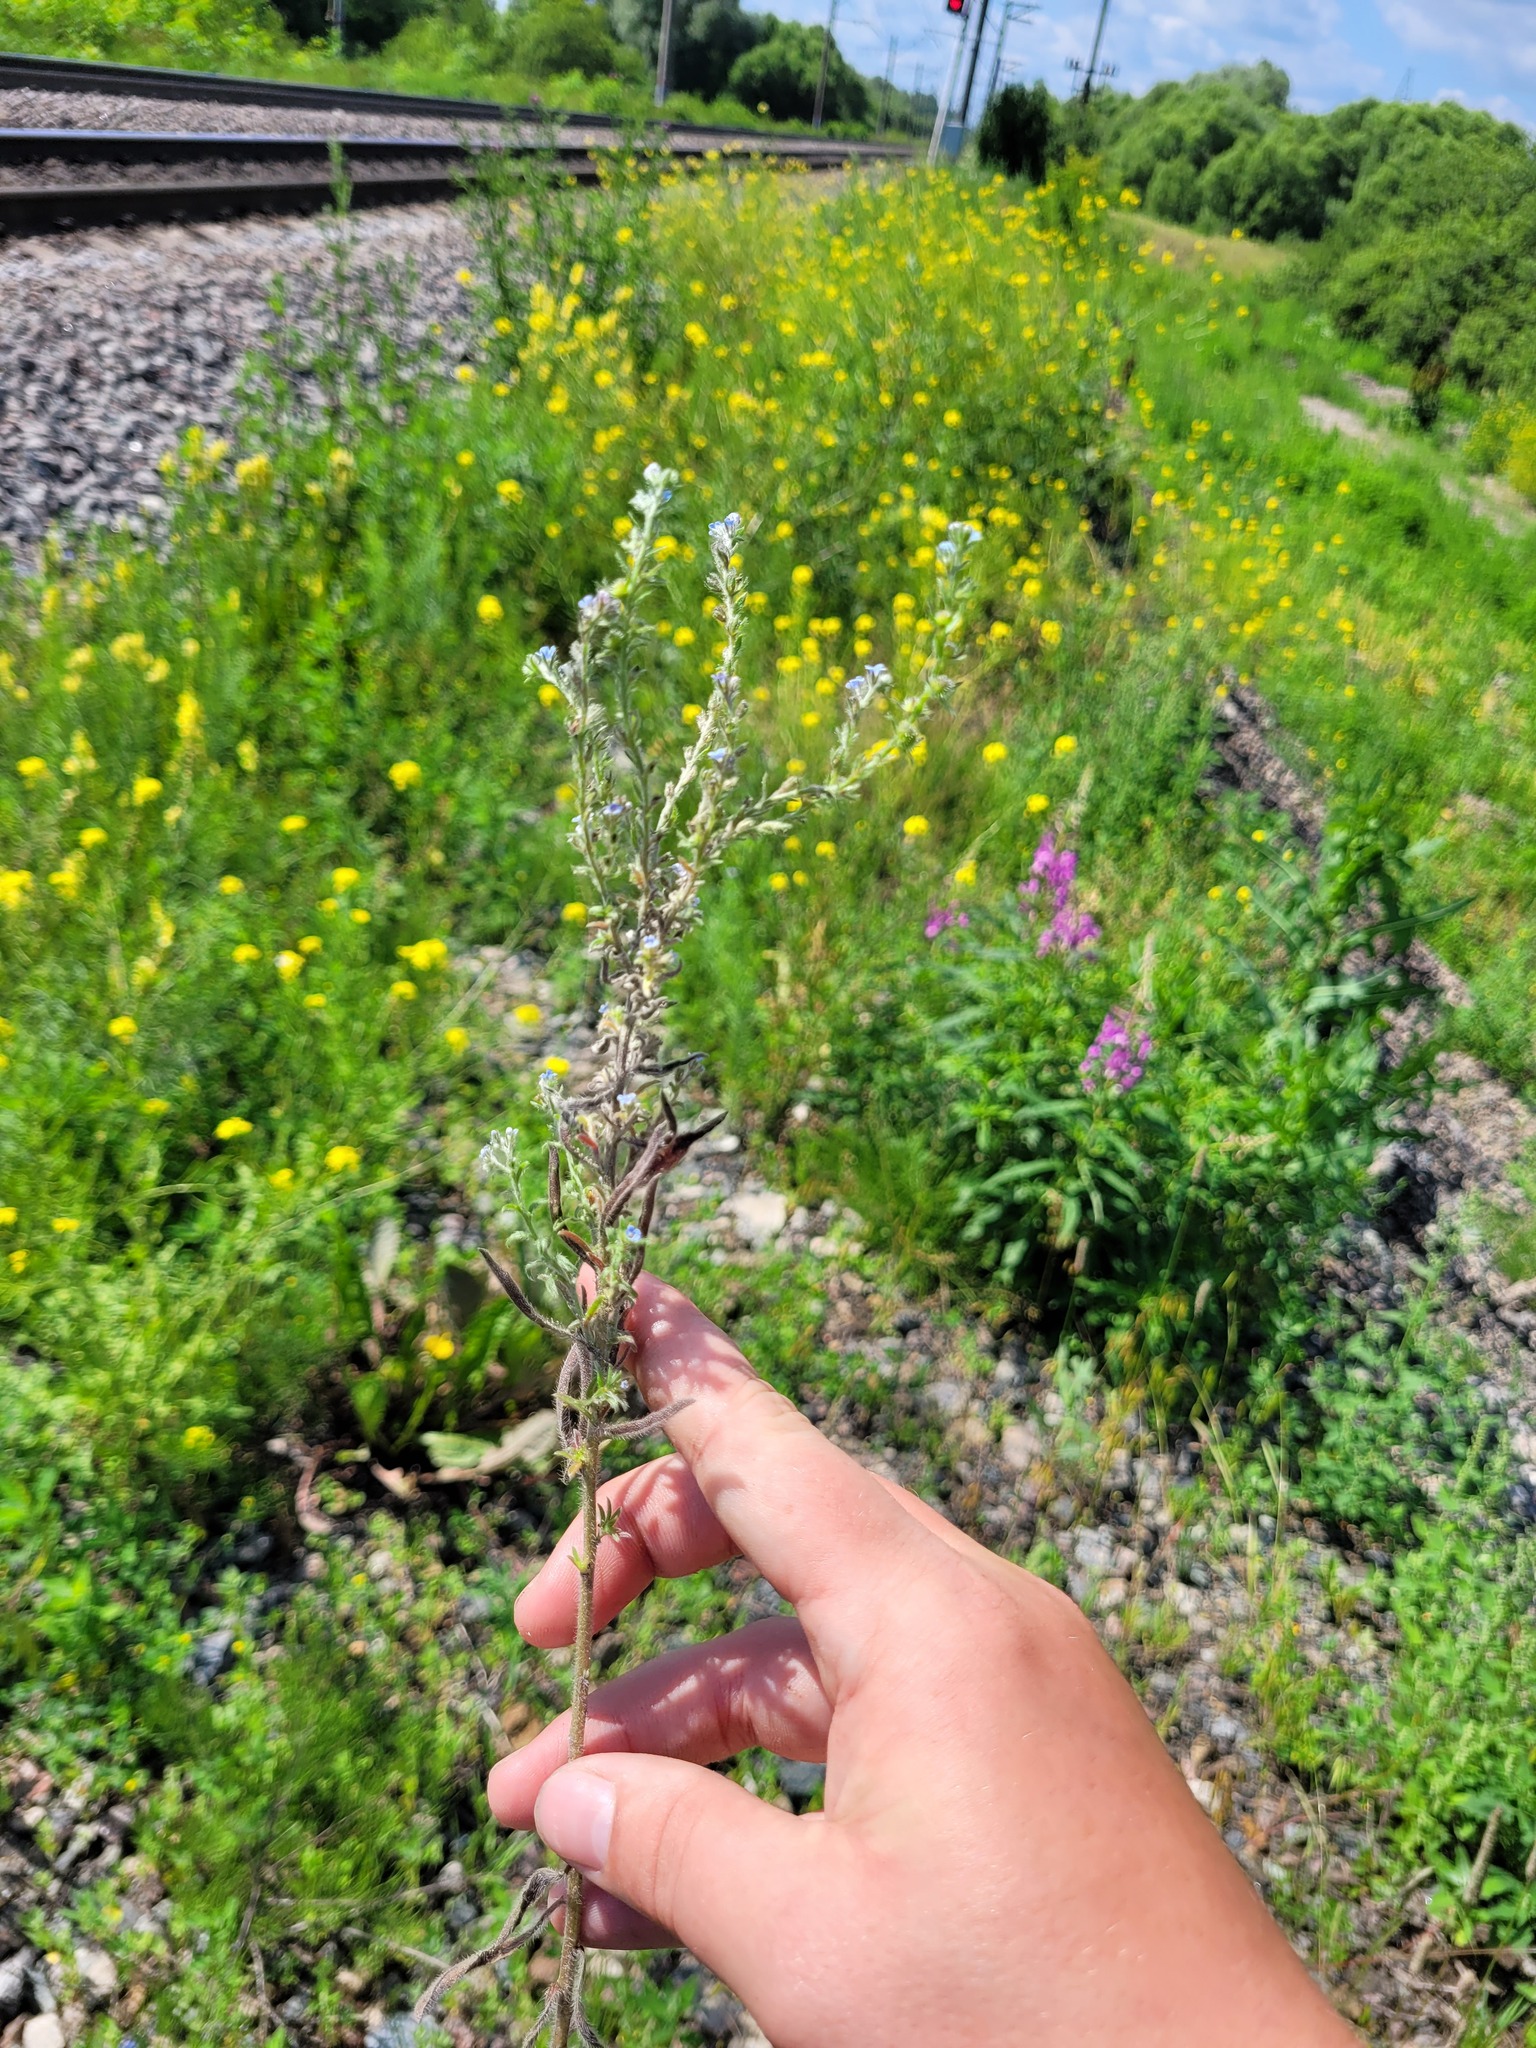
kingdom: Plantae
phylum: Tracheophyta
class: Magnoliopsida
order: Boraginales
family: Boraginaceae
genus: Lappula
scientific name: Lappula squarrosa
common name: European stickseed
